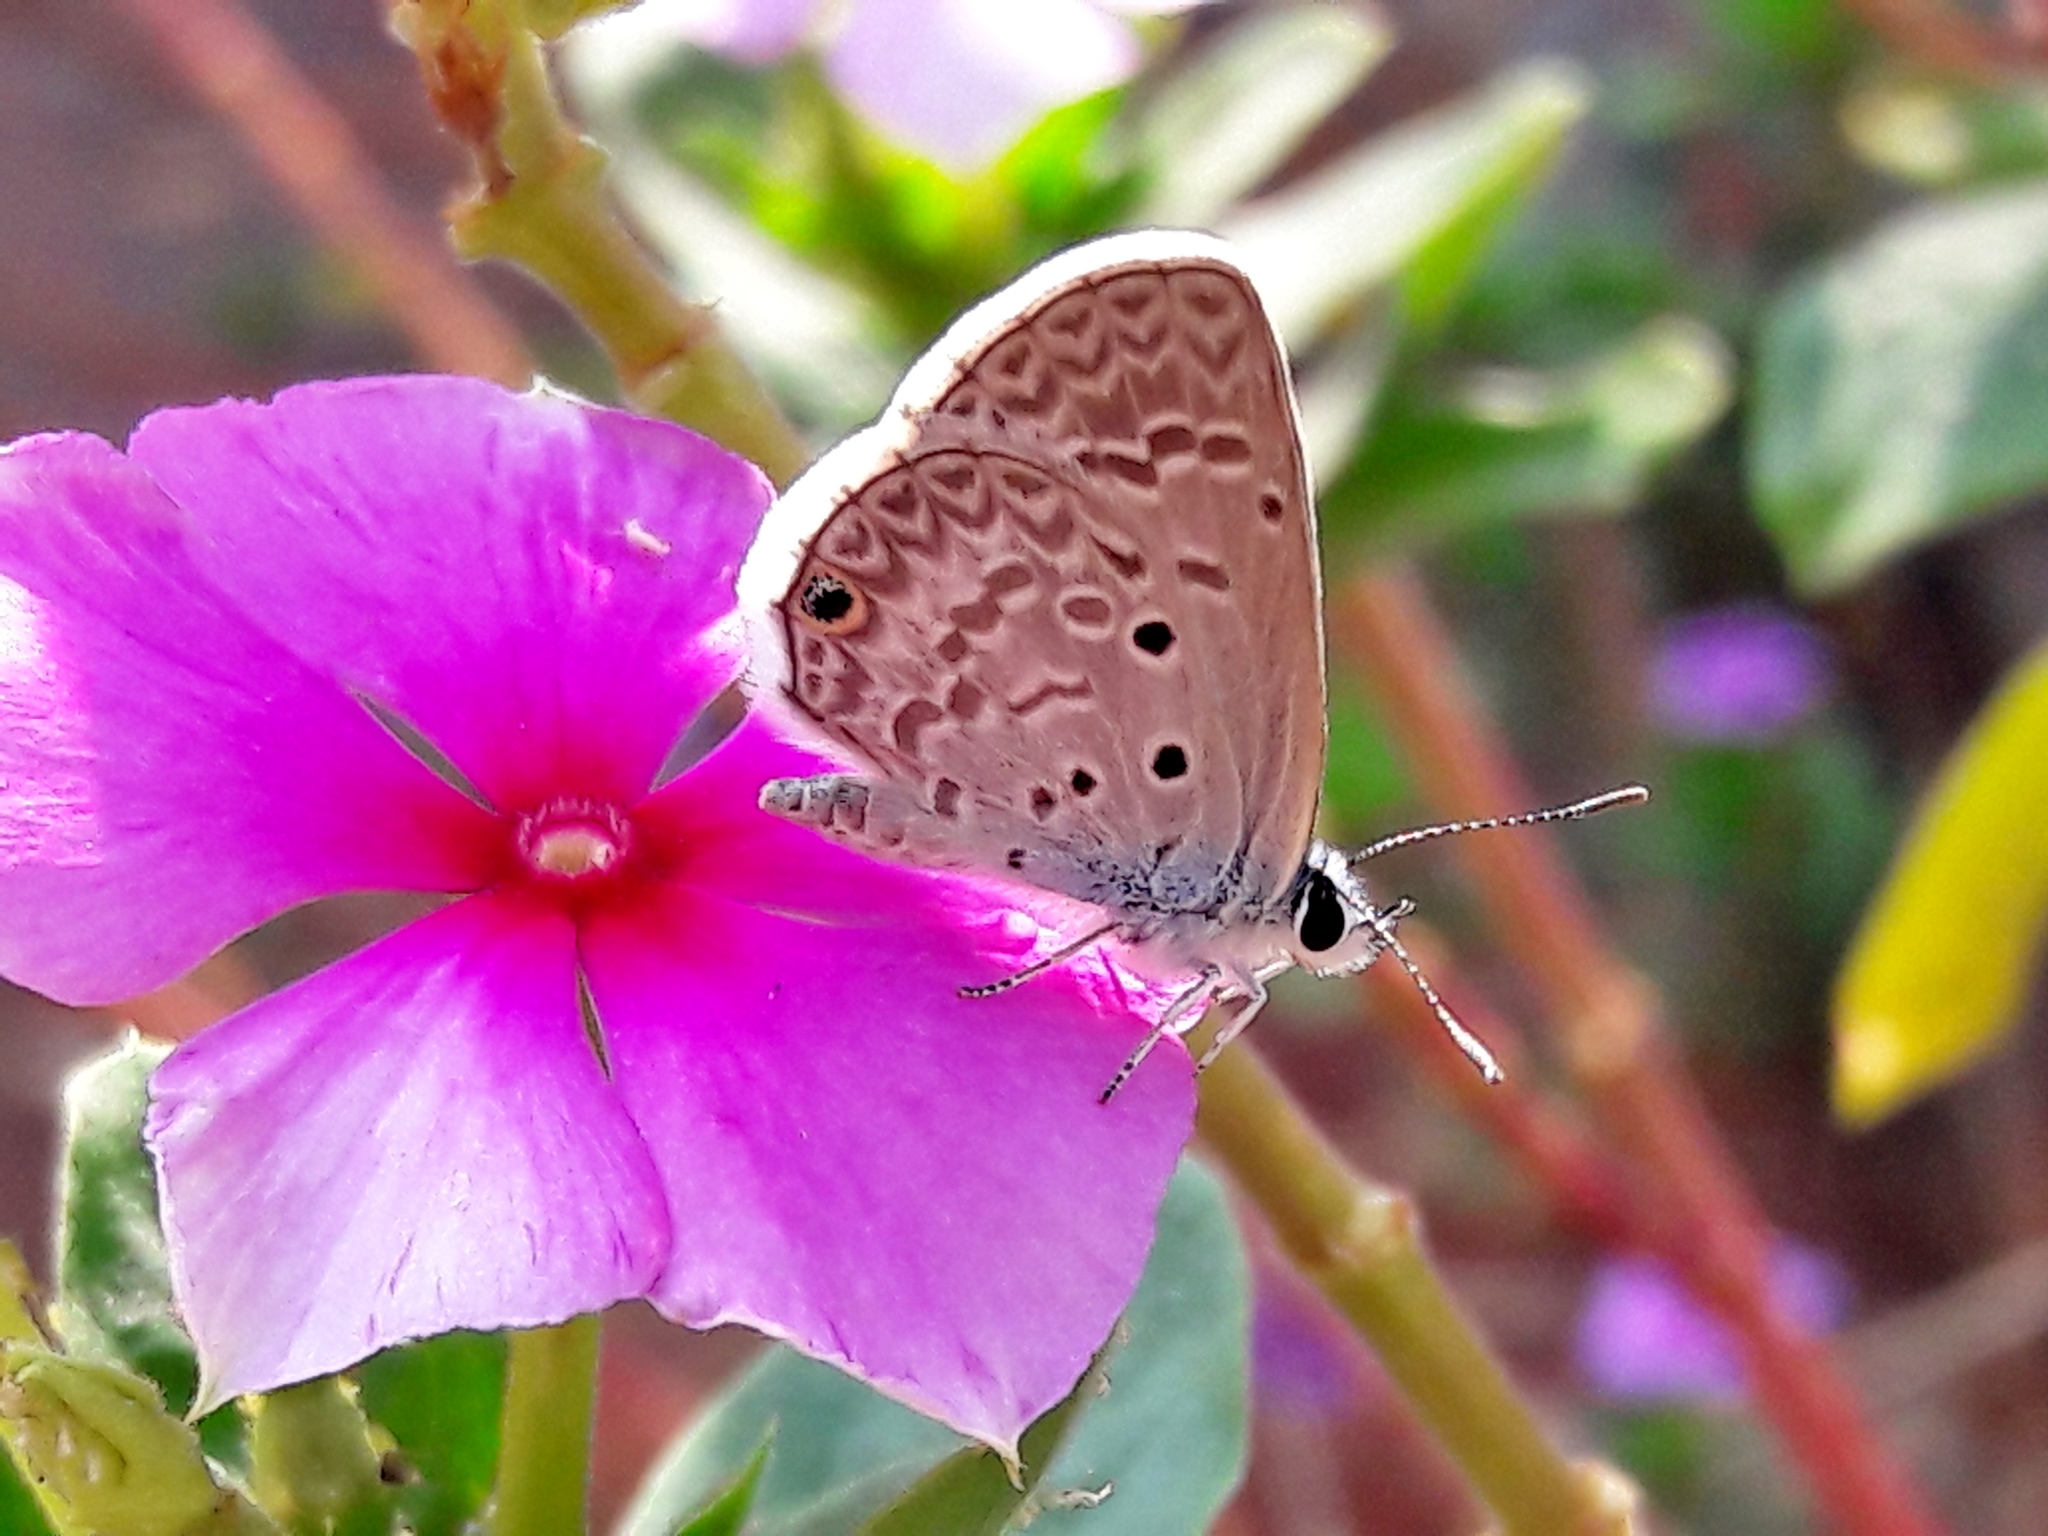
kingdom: Animalia
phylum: Arthropoda
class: Insecta
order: Lepidoptera
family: Lycaenidae
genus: Hemiargus
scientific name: Hemiargus hanno
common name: Common blue
